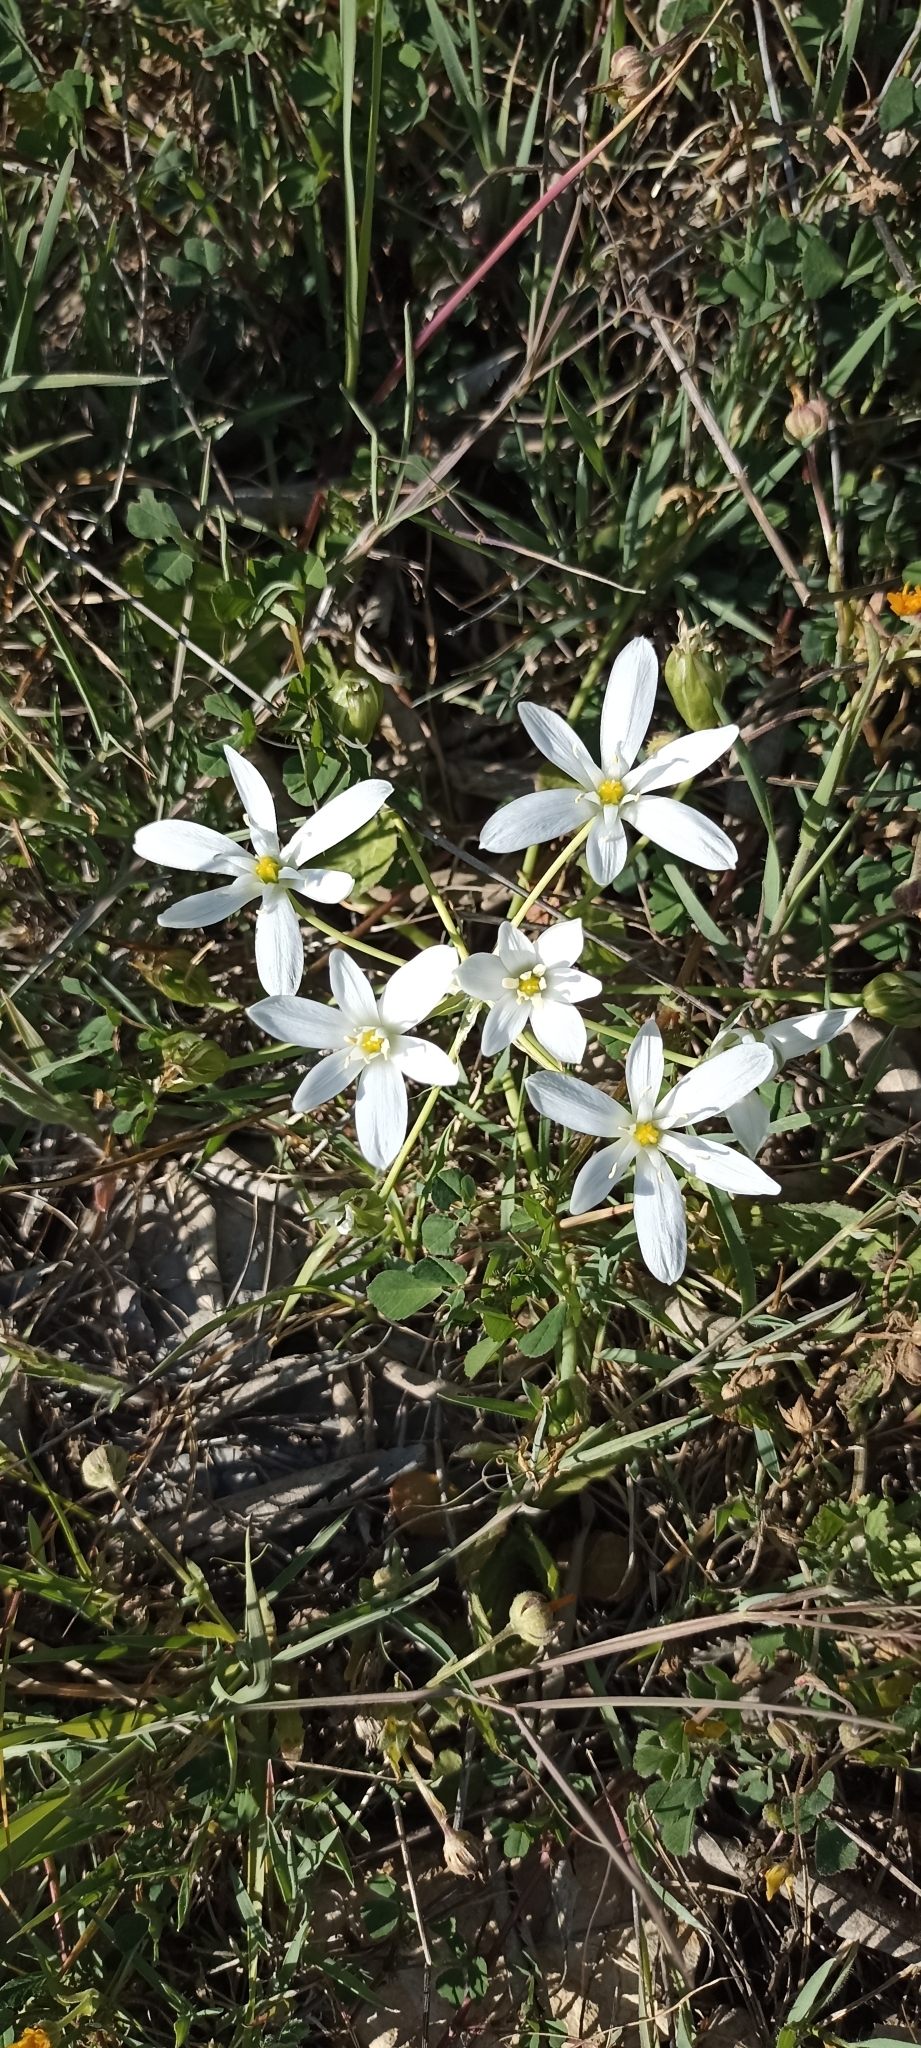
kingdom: Plantae
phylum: Tracheophyta
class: Liliopsida
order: Asparagales
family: Asparagaceae
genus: Ornithogalum
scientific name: Ornithogalum umbellatum
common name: Garden star-of-bethlehem
